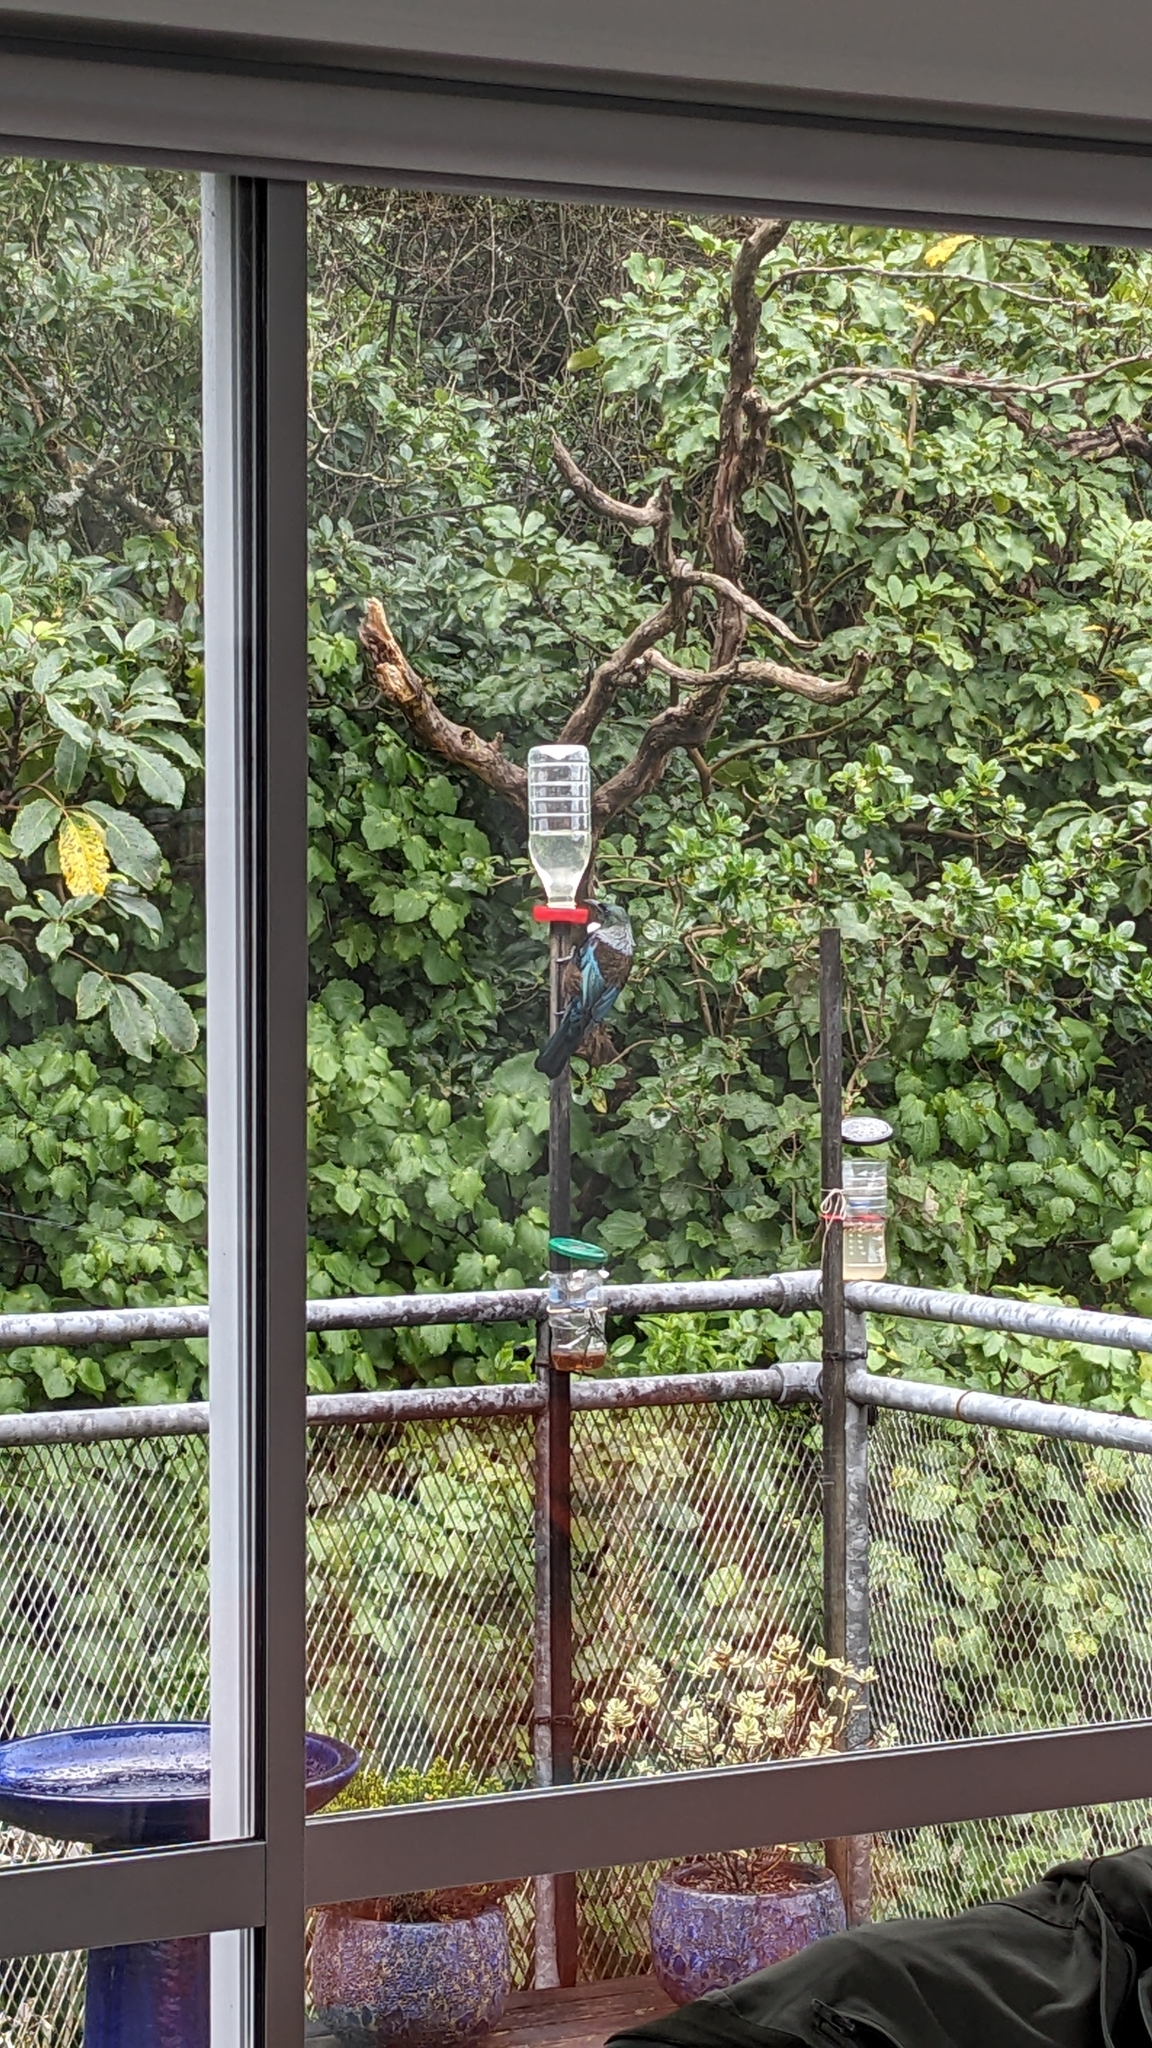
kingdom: Animalia
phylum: Chordata
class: Aves
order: Passeriformes
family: Meliphagidae
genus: Prosthemadera
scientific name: Prosthemadera novaeseelandiae
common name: Tui
